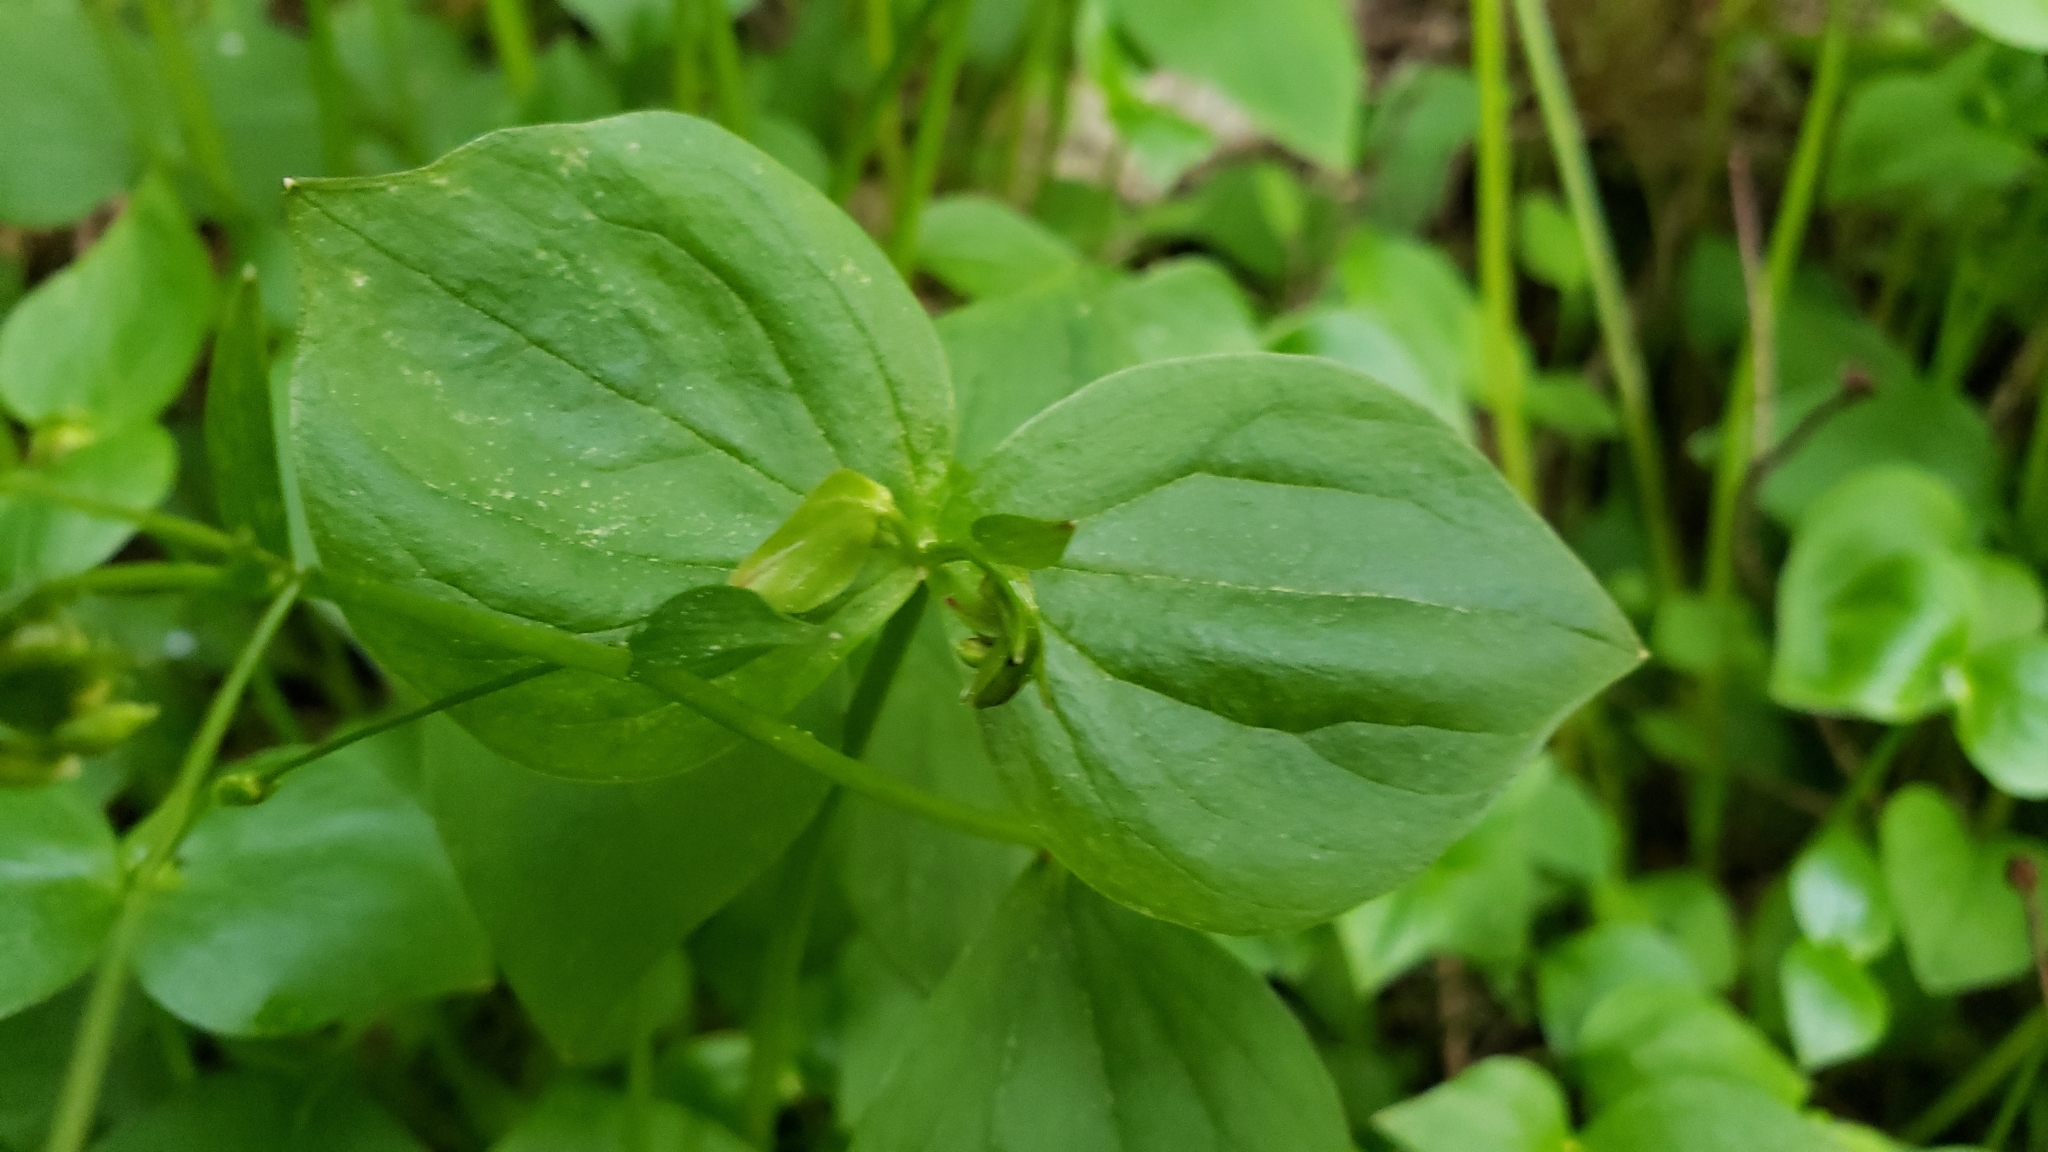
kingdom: Plantae
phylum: Tracheophyta
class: Magnoliopsida
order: Caryophyllales
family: Montiaceae
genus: Claytonia
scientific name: Claytonia sibirica
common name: Pink purslane
